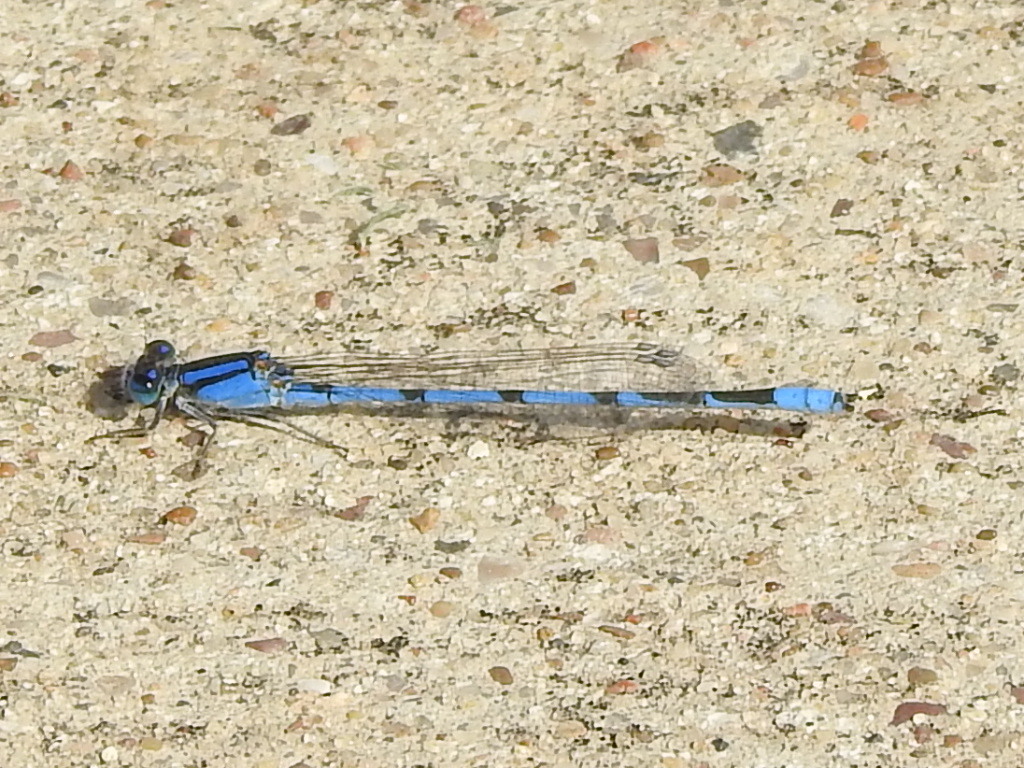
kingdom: Animalia
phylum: Arthropoda
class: Insecta
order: Odonata
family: Coenagrionidae
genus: Enallagma
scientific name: Enallagma civile
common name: Damselfly
